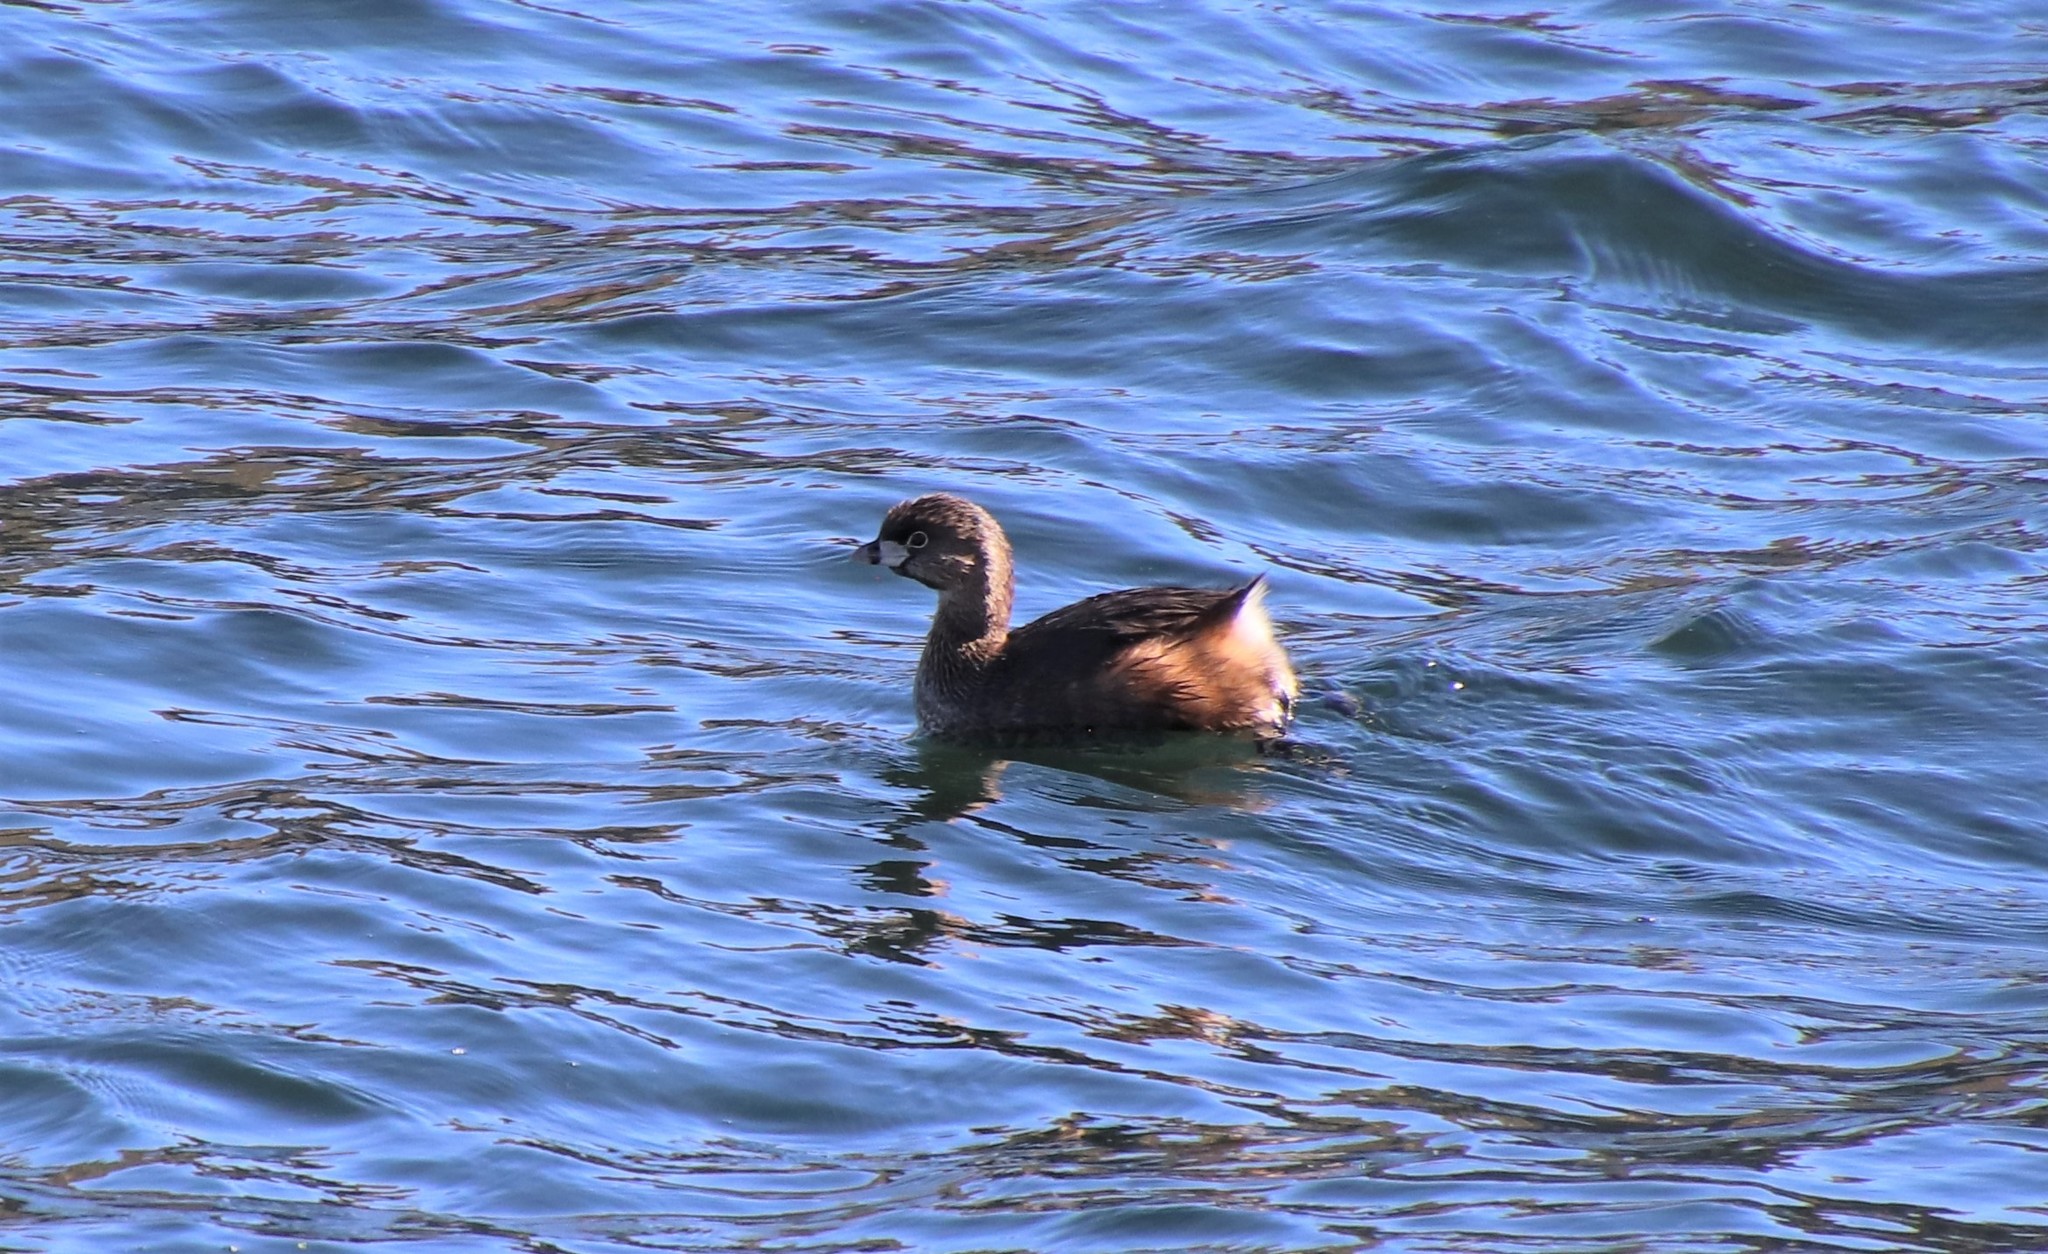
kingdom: Animalia
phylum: Chordata
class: Aves
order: Podicipediformes
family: Podicipedidae
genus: Podilymbus
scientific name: Podilymbus podiceps
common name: Pied-billed grebe
